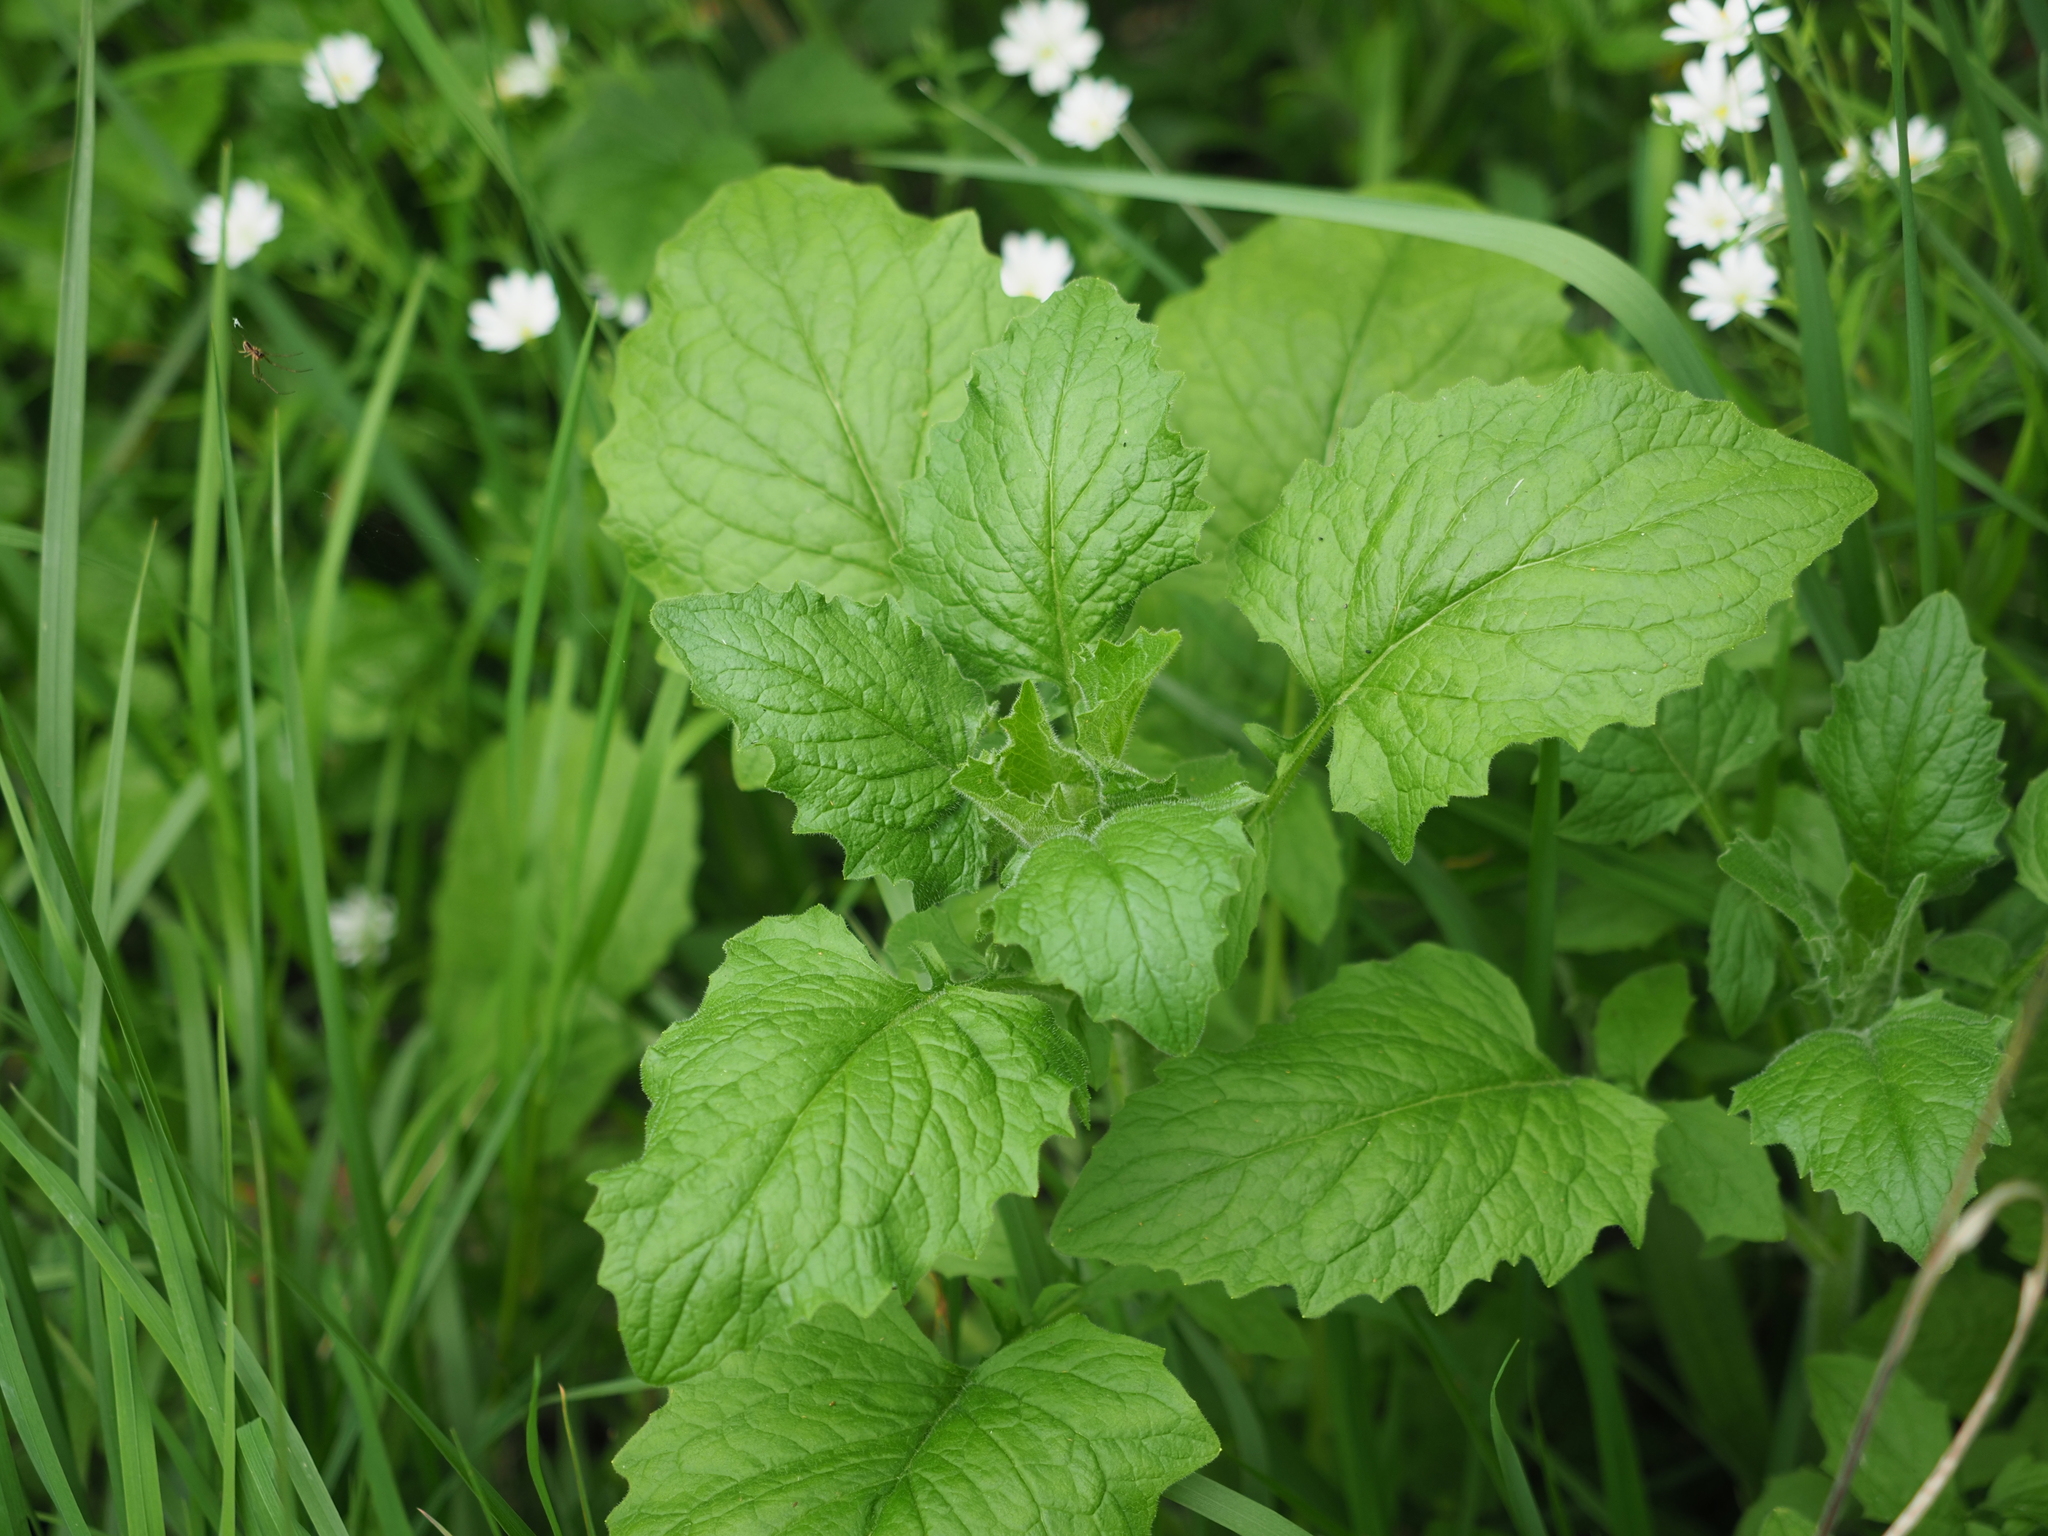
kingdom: Plantae
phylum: Tracheophyta
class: Magnoliopsida
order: Asterales
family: Asteraceae
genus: Lapsana
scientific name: Lapsana communis
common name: Nipplewort
